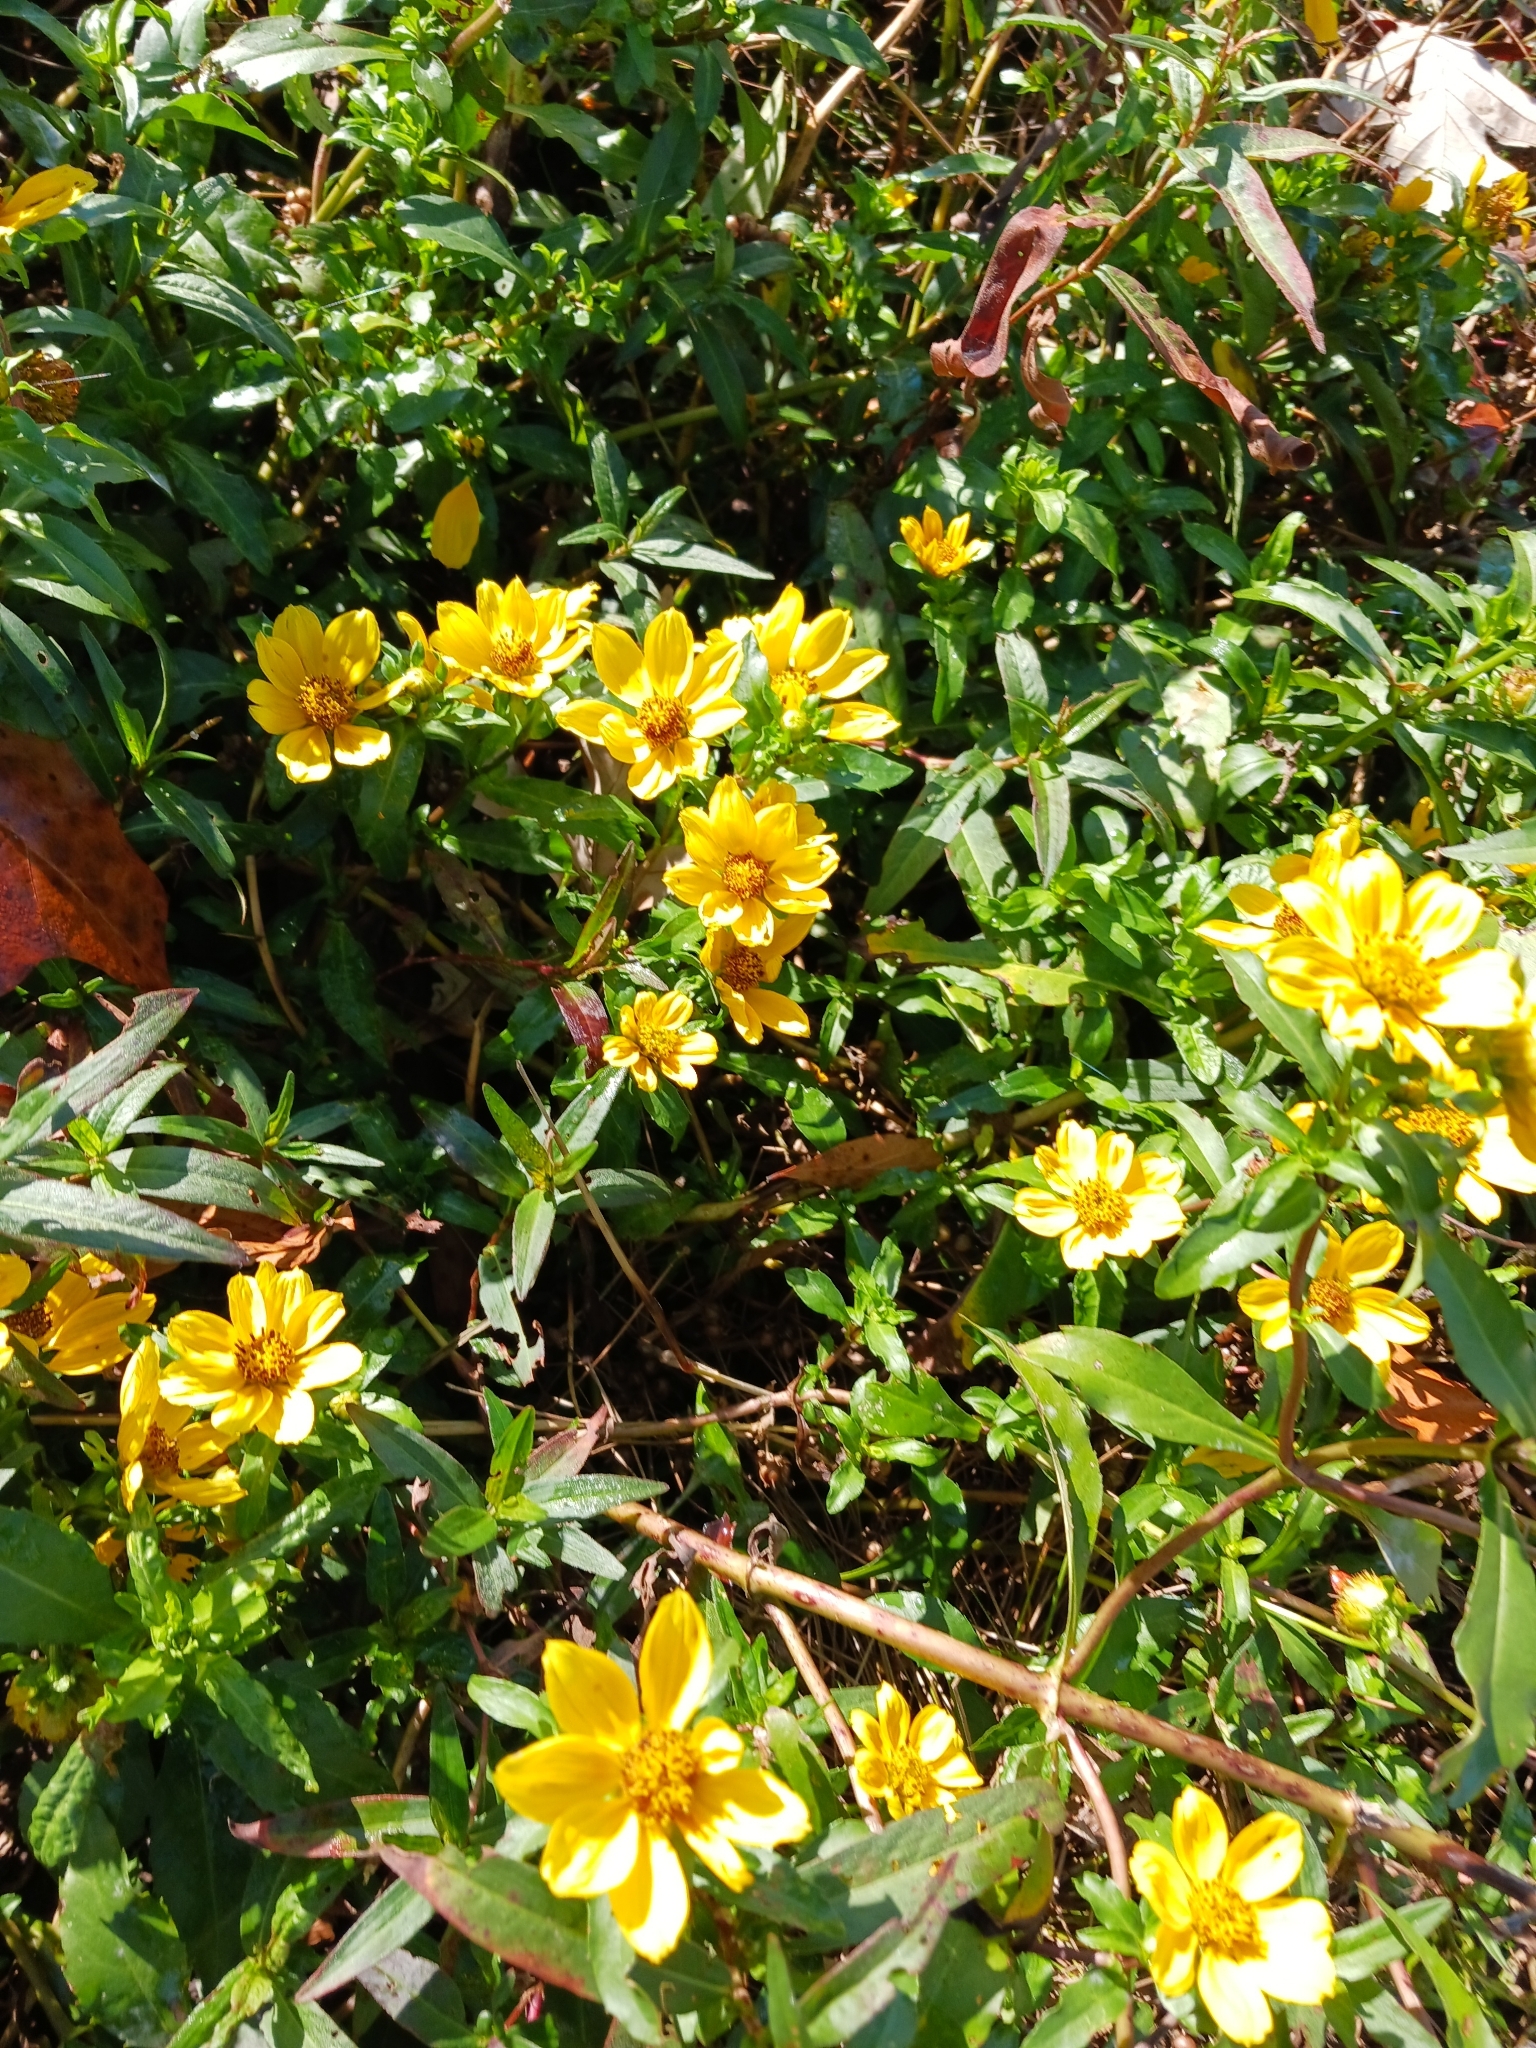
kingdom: Plantae
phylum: Tracheophyta
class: Magnoliopsida
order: Asterales
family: Asteraceae
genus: Bidens
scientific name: Bidens laevis
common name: Larger bur-marigold
